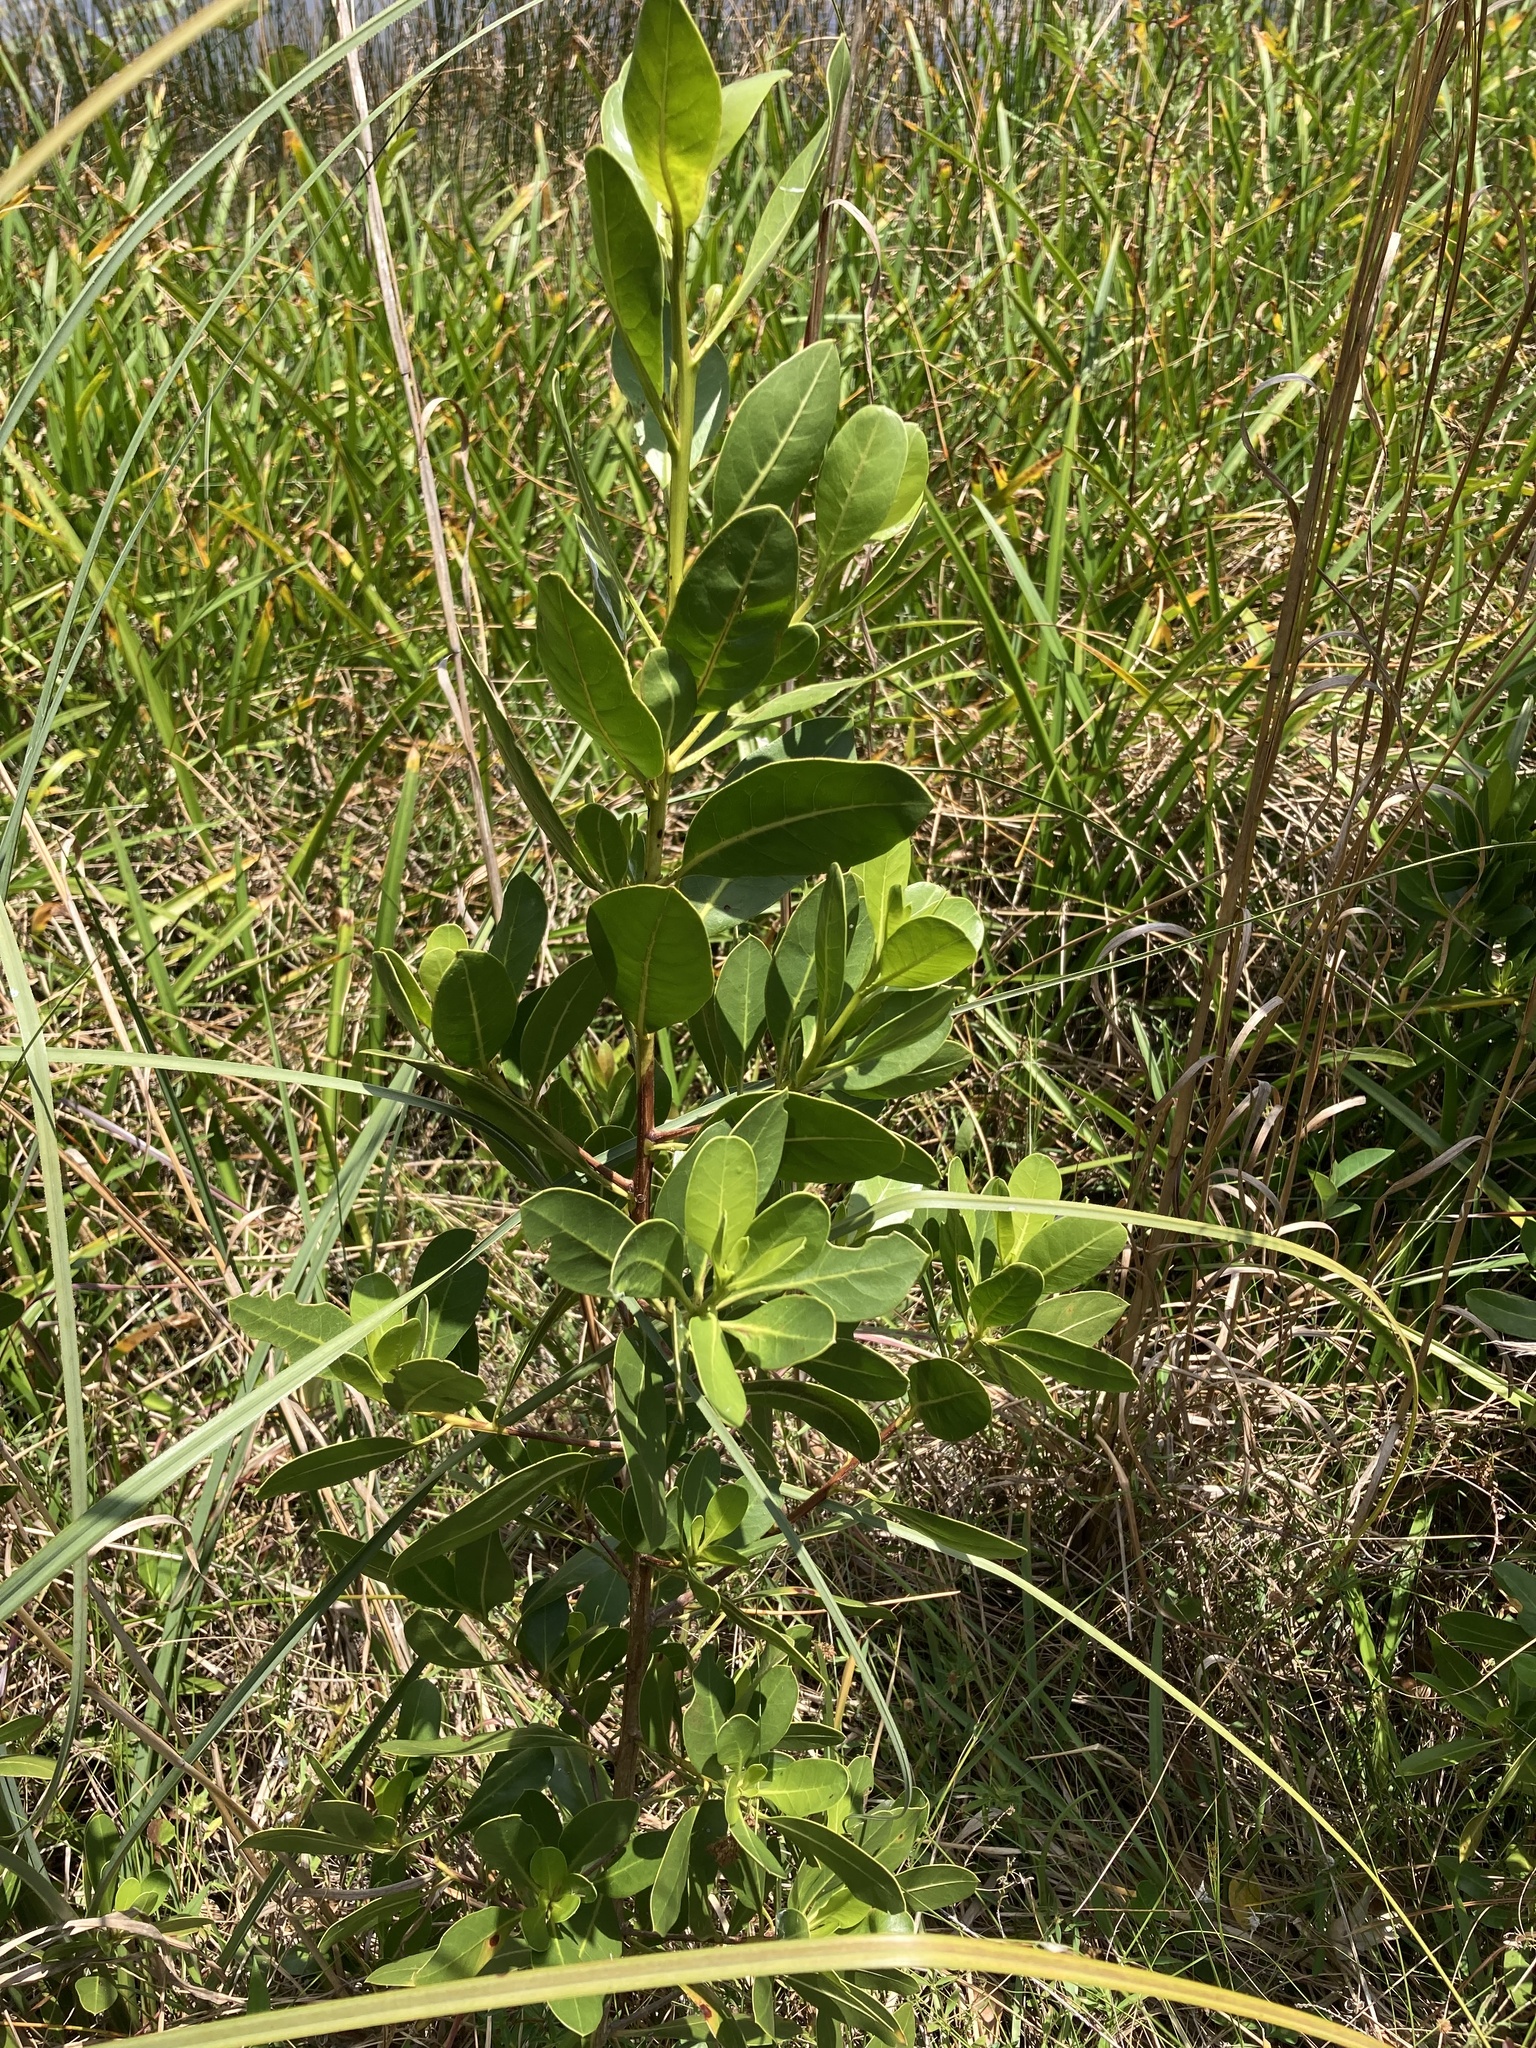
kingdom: Plantae
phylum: Tracheophyta
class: Magnoliopsida
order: Myrtales
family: Combretaceae
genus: Conocarpus
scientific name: Conocarpus erectus
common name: Button mangrove
